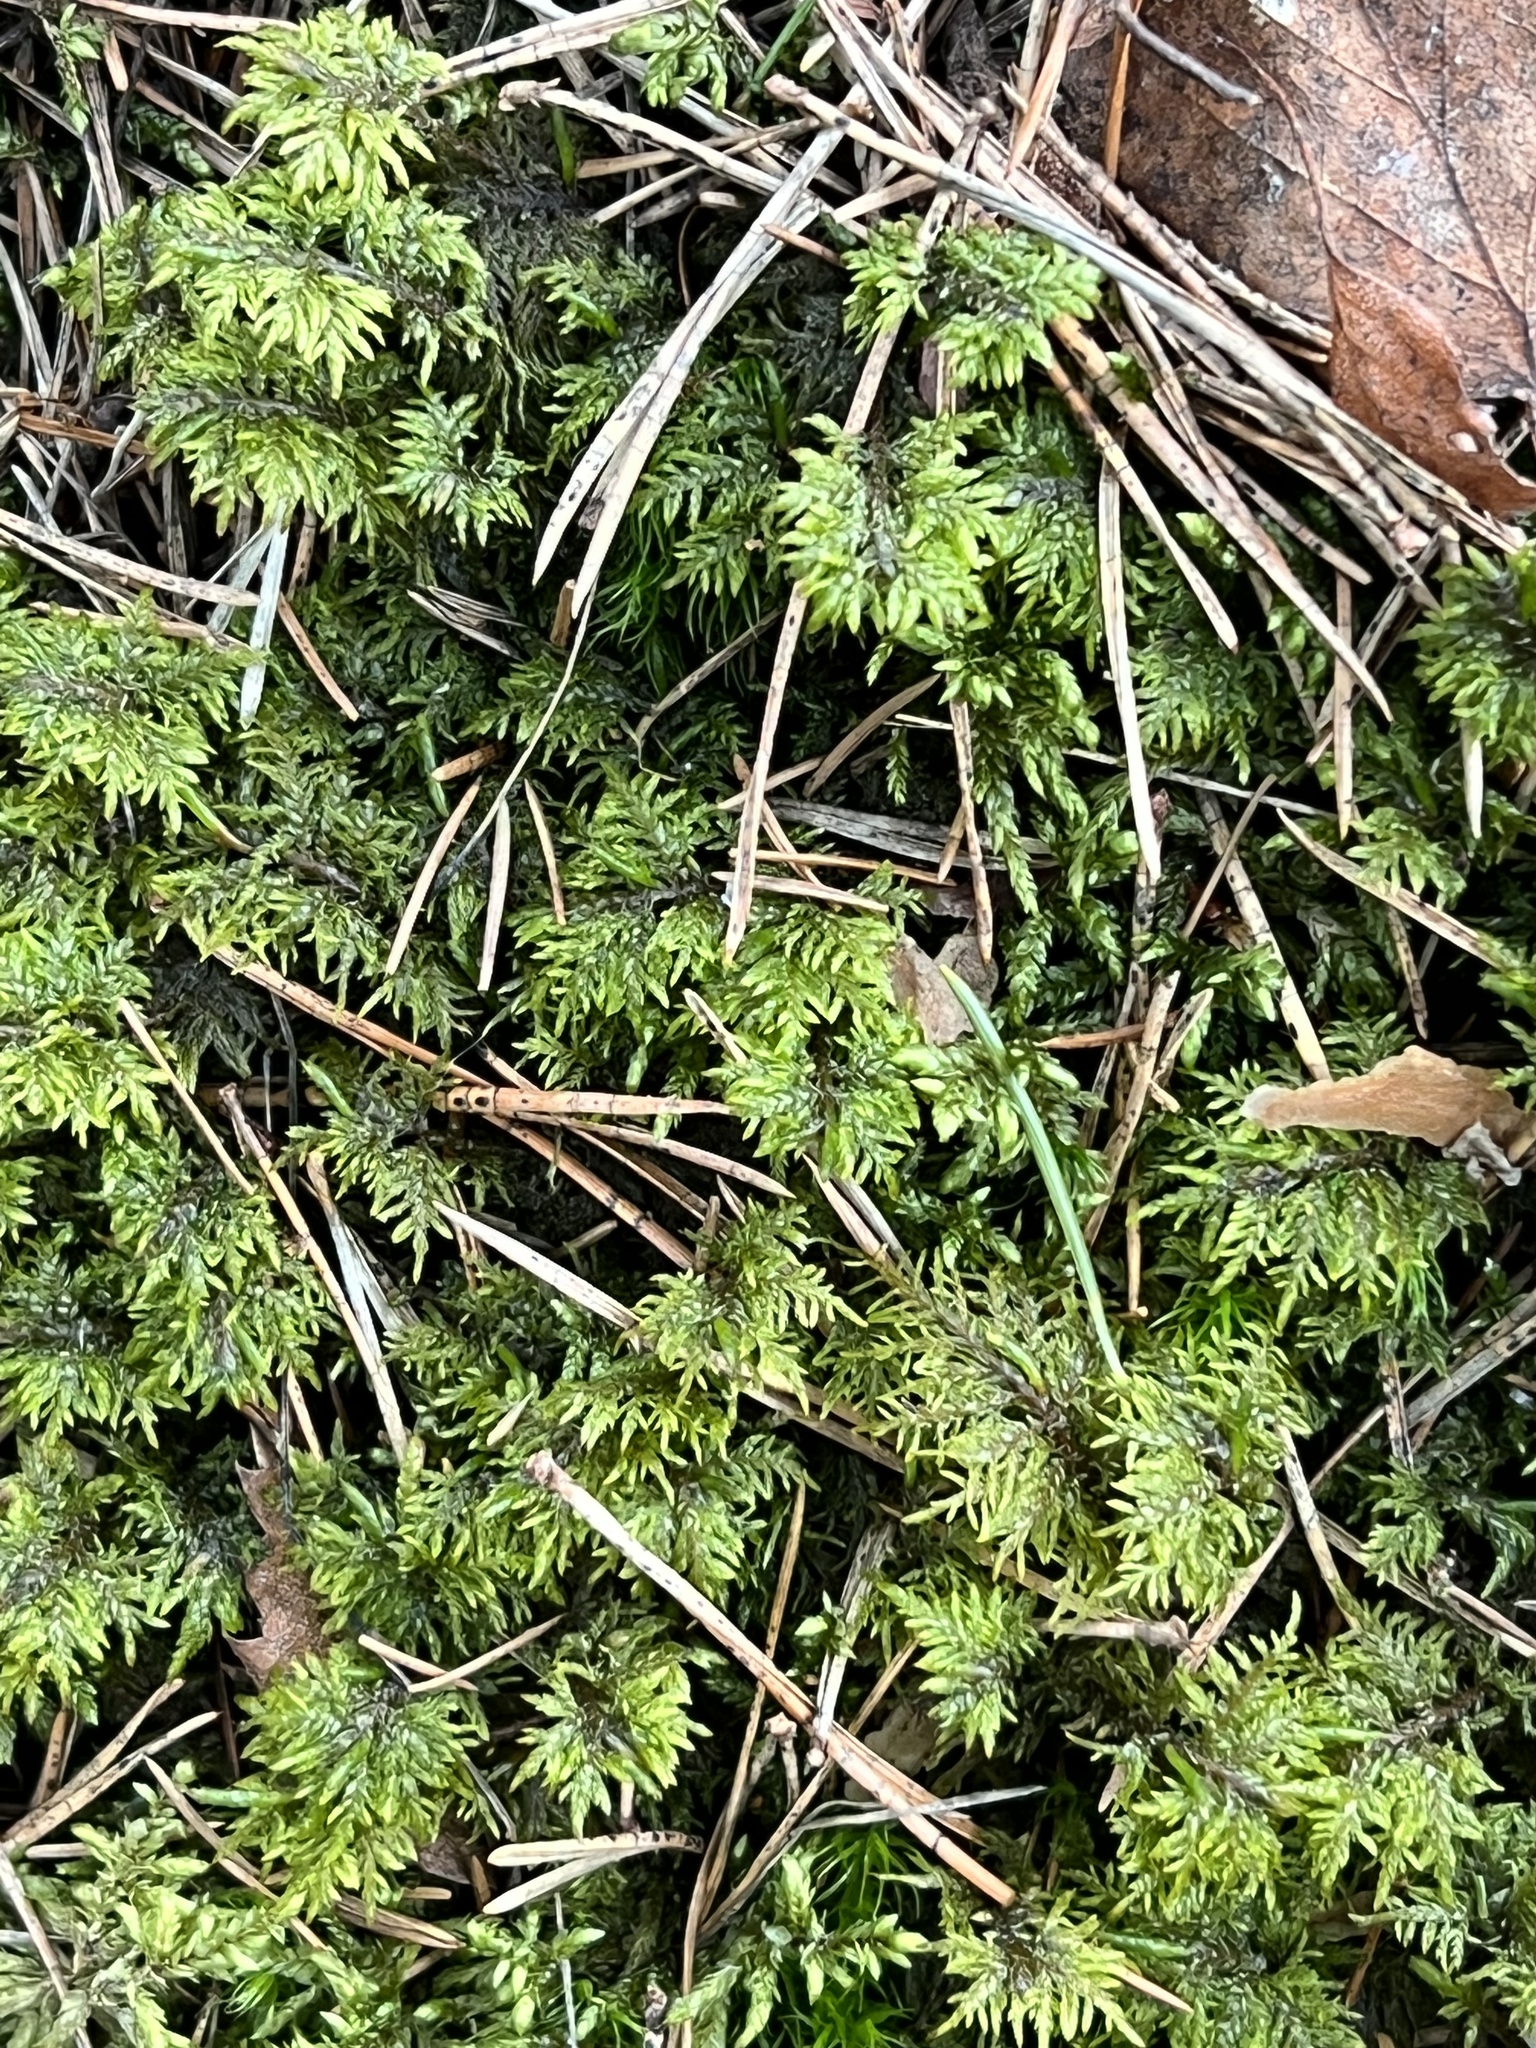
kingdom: Plantae
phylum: Bryophyta
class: Bryopsida
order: Hypnales
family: Hylocomiaceae
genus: Hylocomium
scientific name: Hylocomium splendens
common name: Stairstep moss
